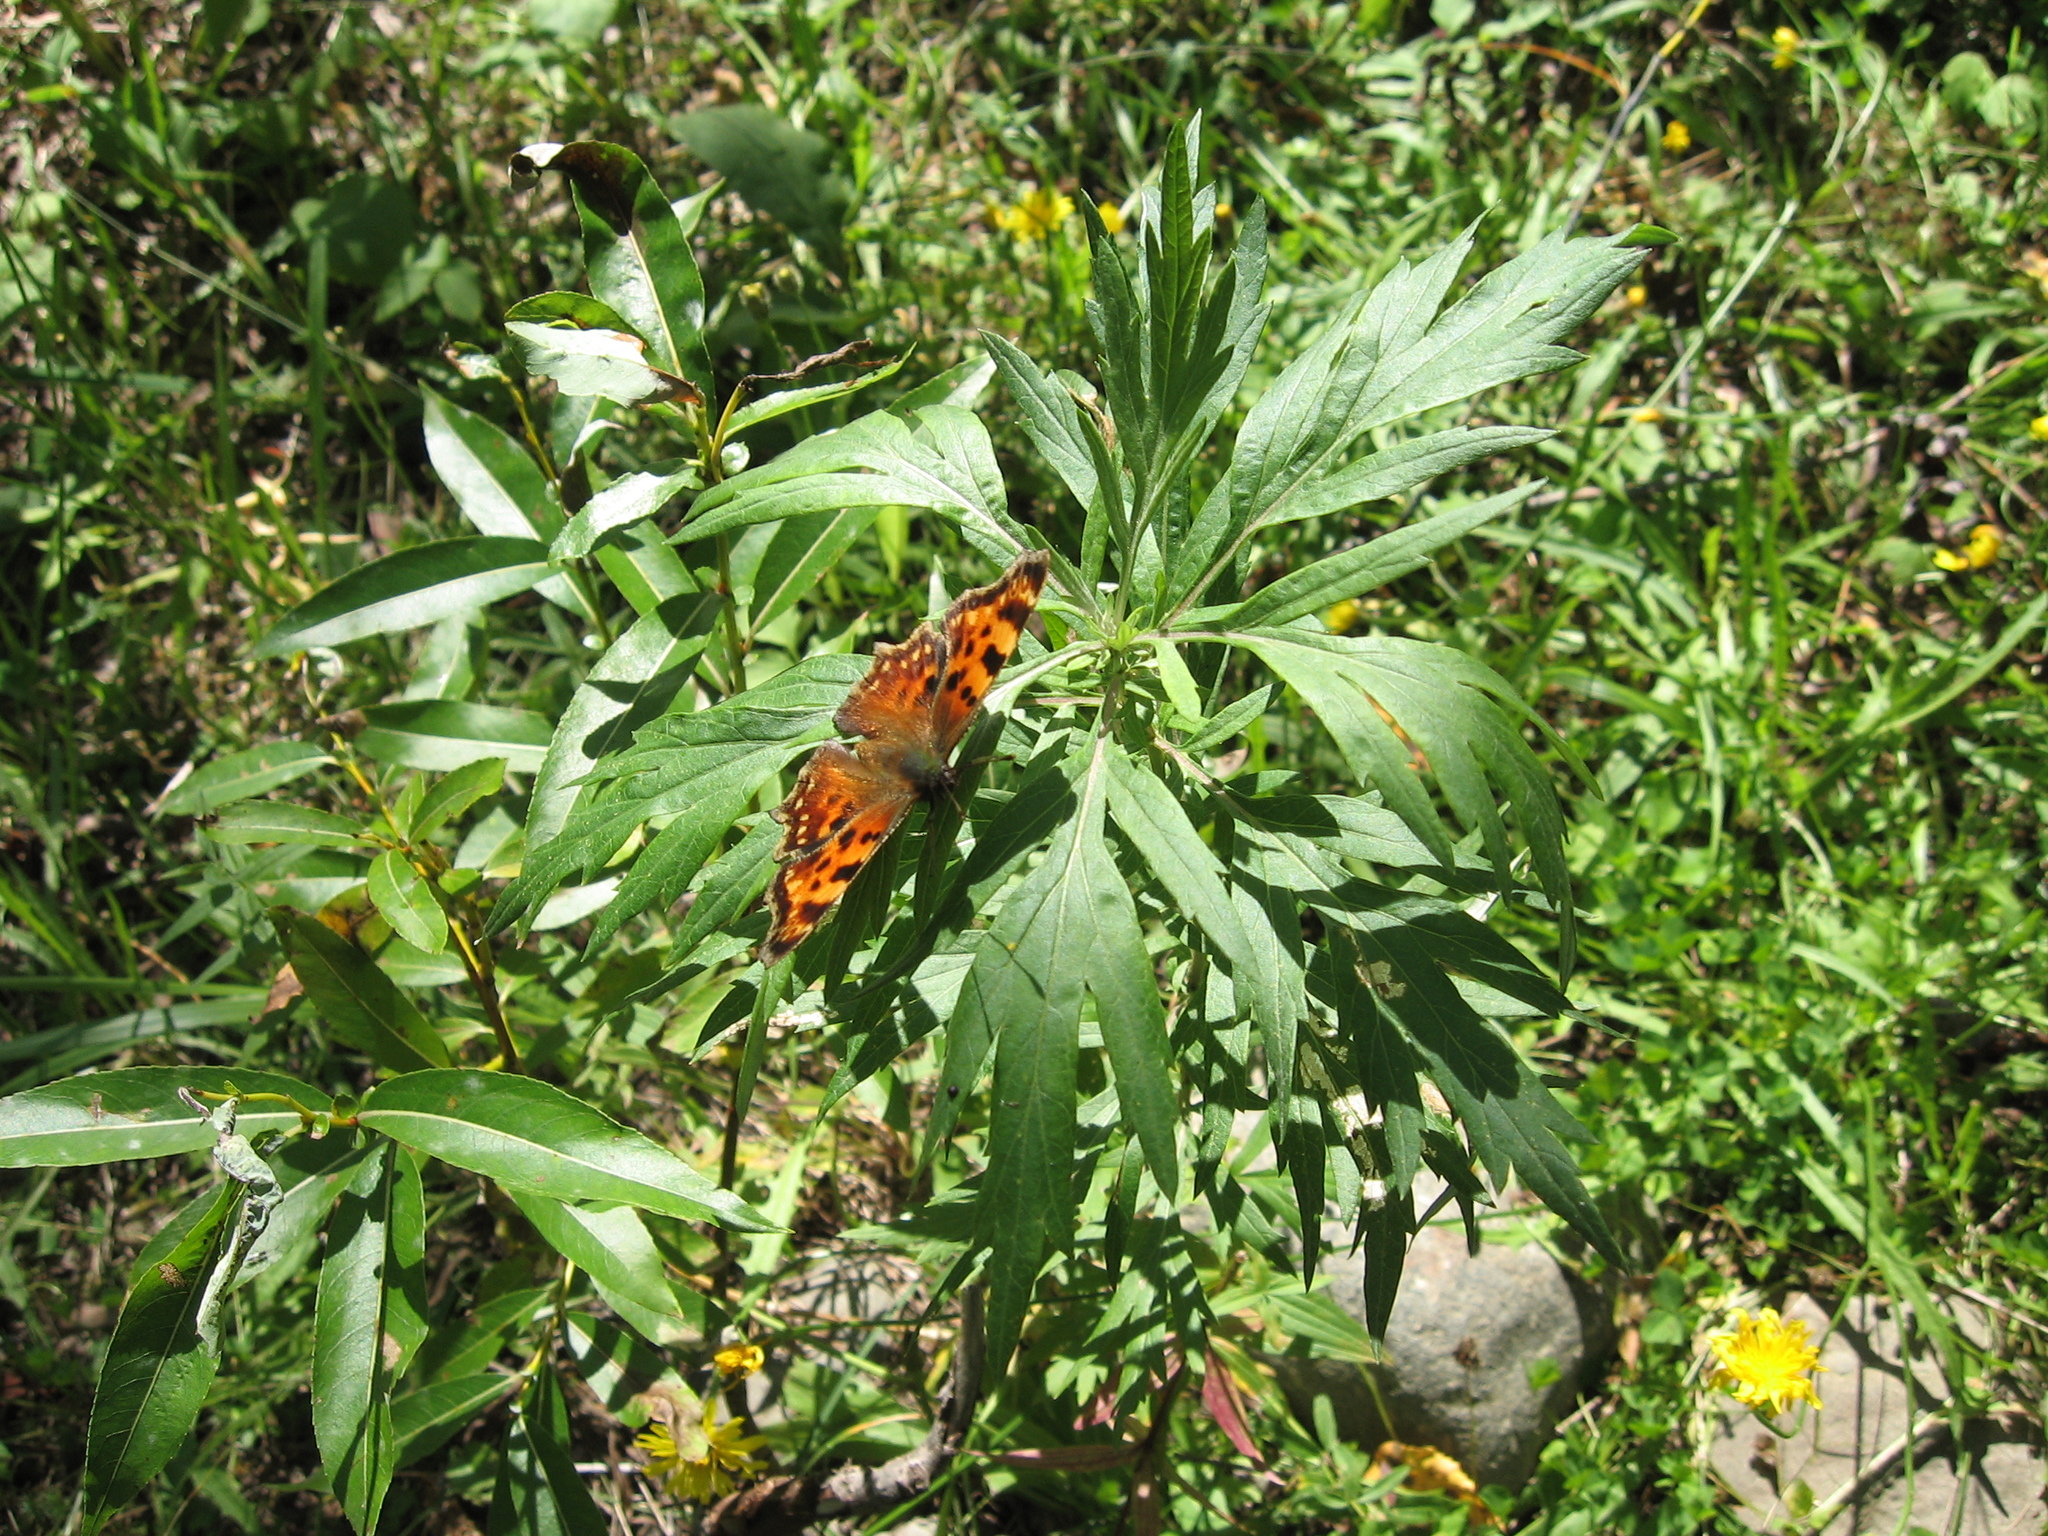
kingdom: Animalia
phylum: Arthropoda
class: Insecta
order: Lepidoptera
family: Nymphalidae
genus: Polygonia
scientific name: Polygonia c-album
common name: Comma
